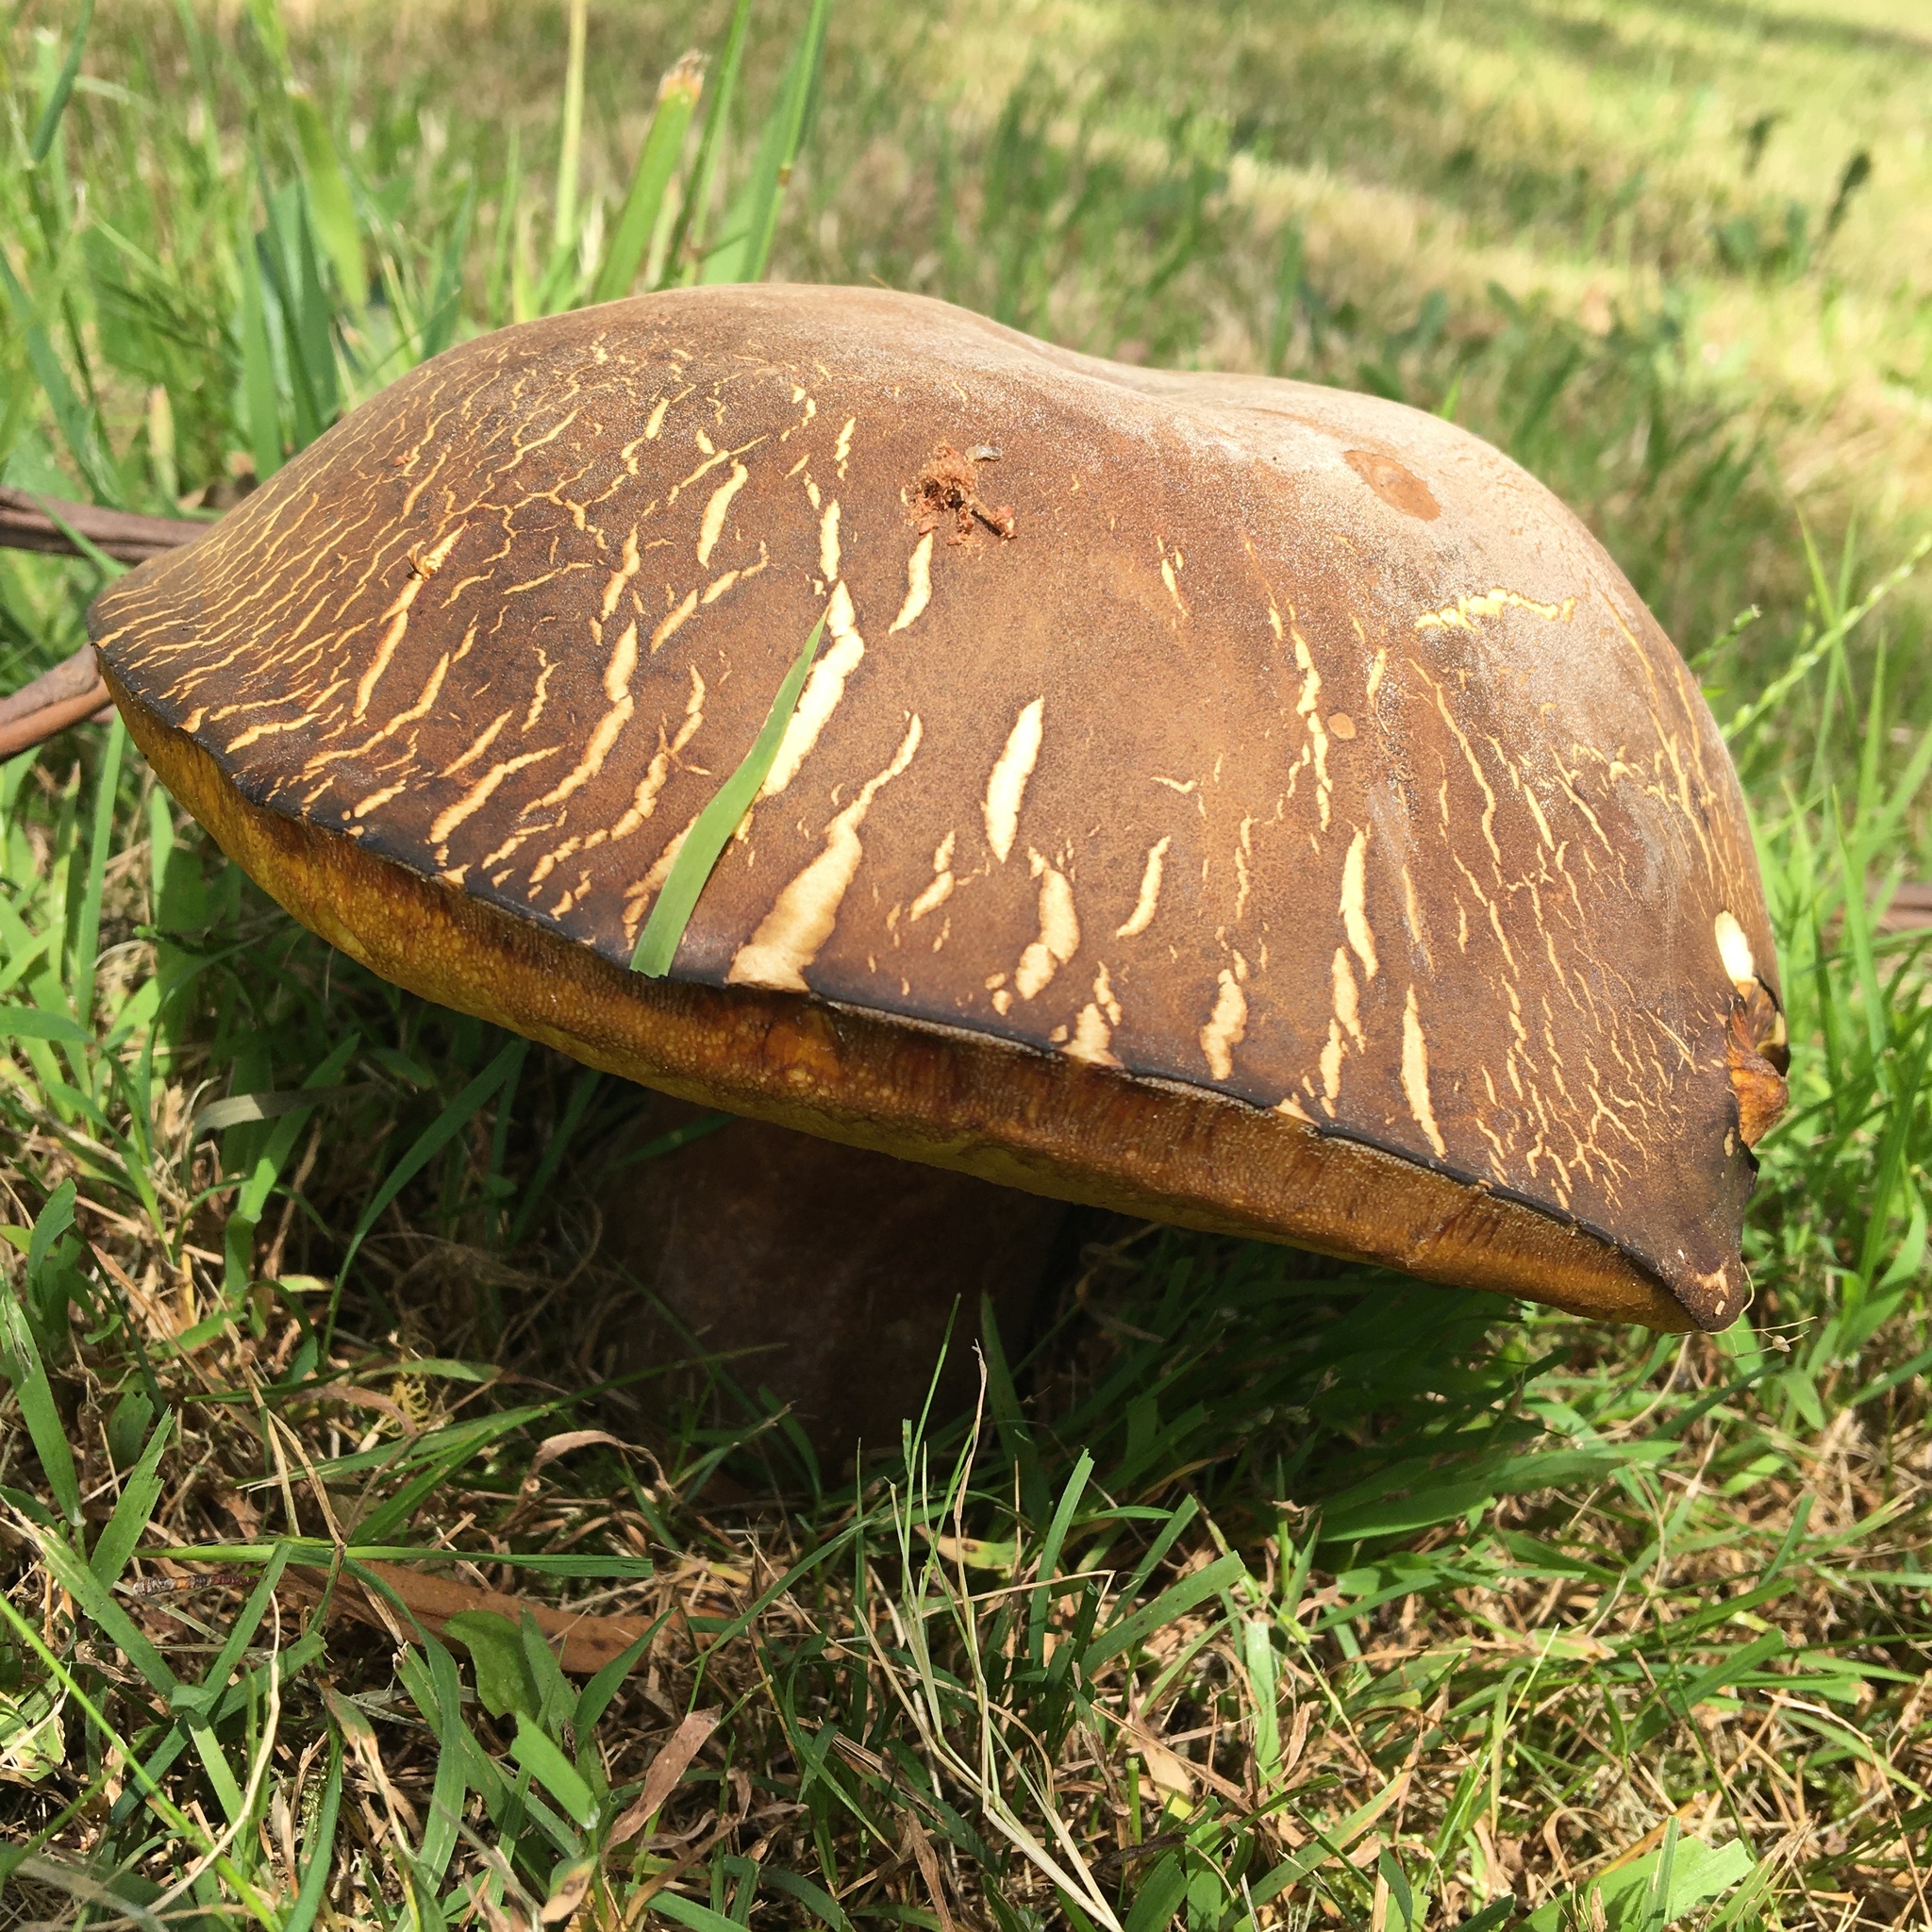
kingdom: Fungi
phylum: Basidiomycota
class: Agaricomycetes
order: Boletales
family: Boletinellaceae
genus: Phlebopus
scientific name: Phlebopus marginatus
